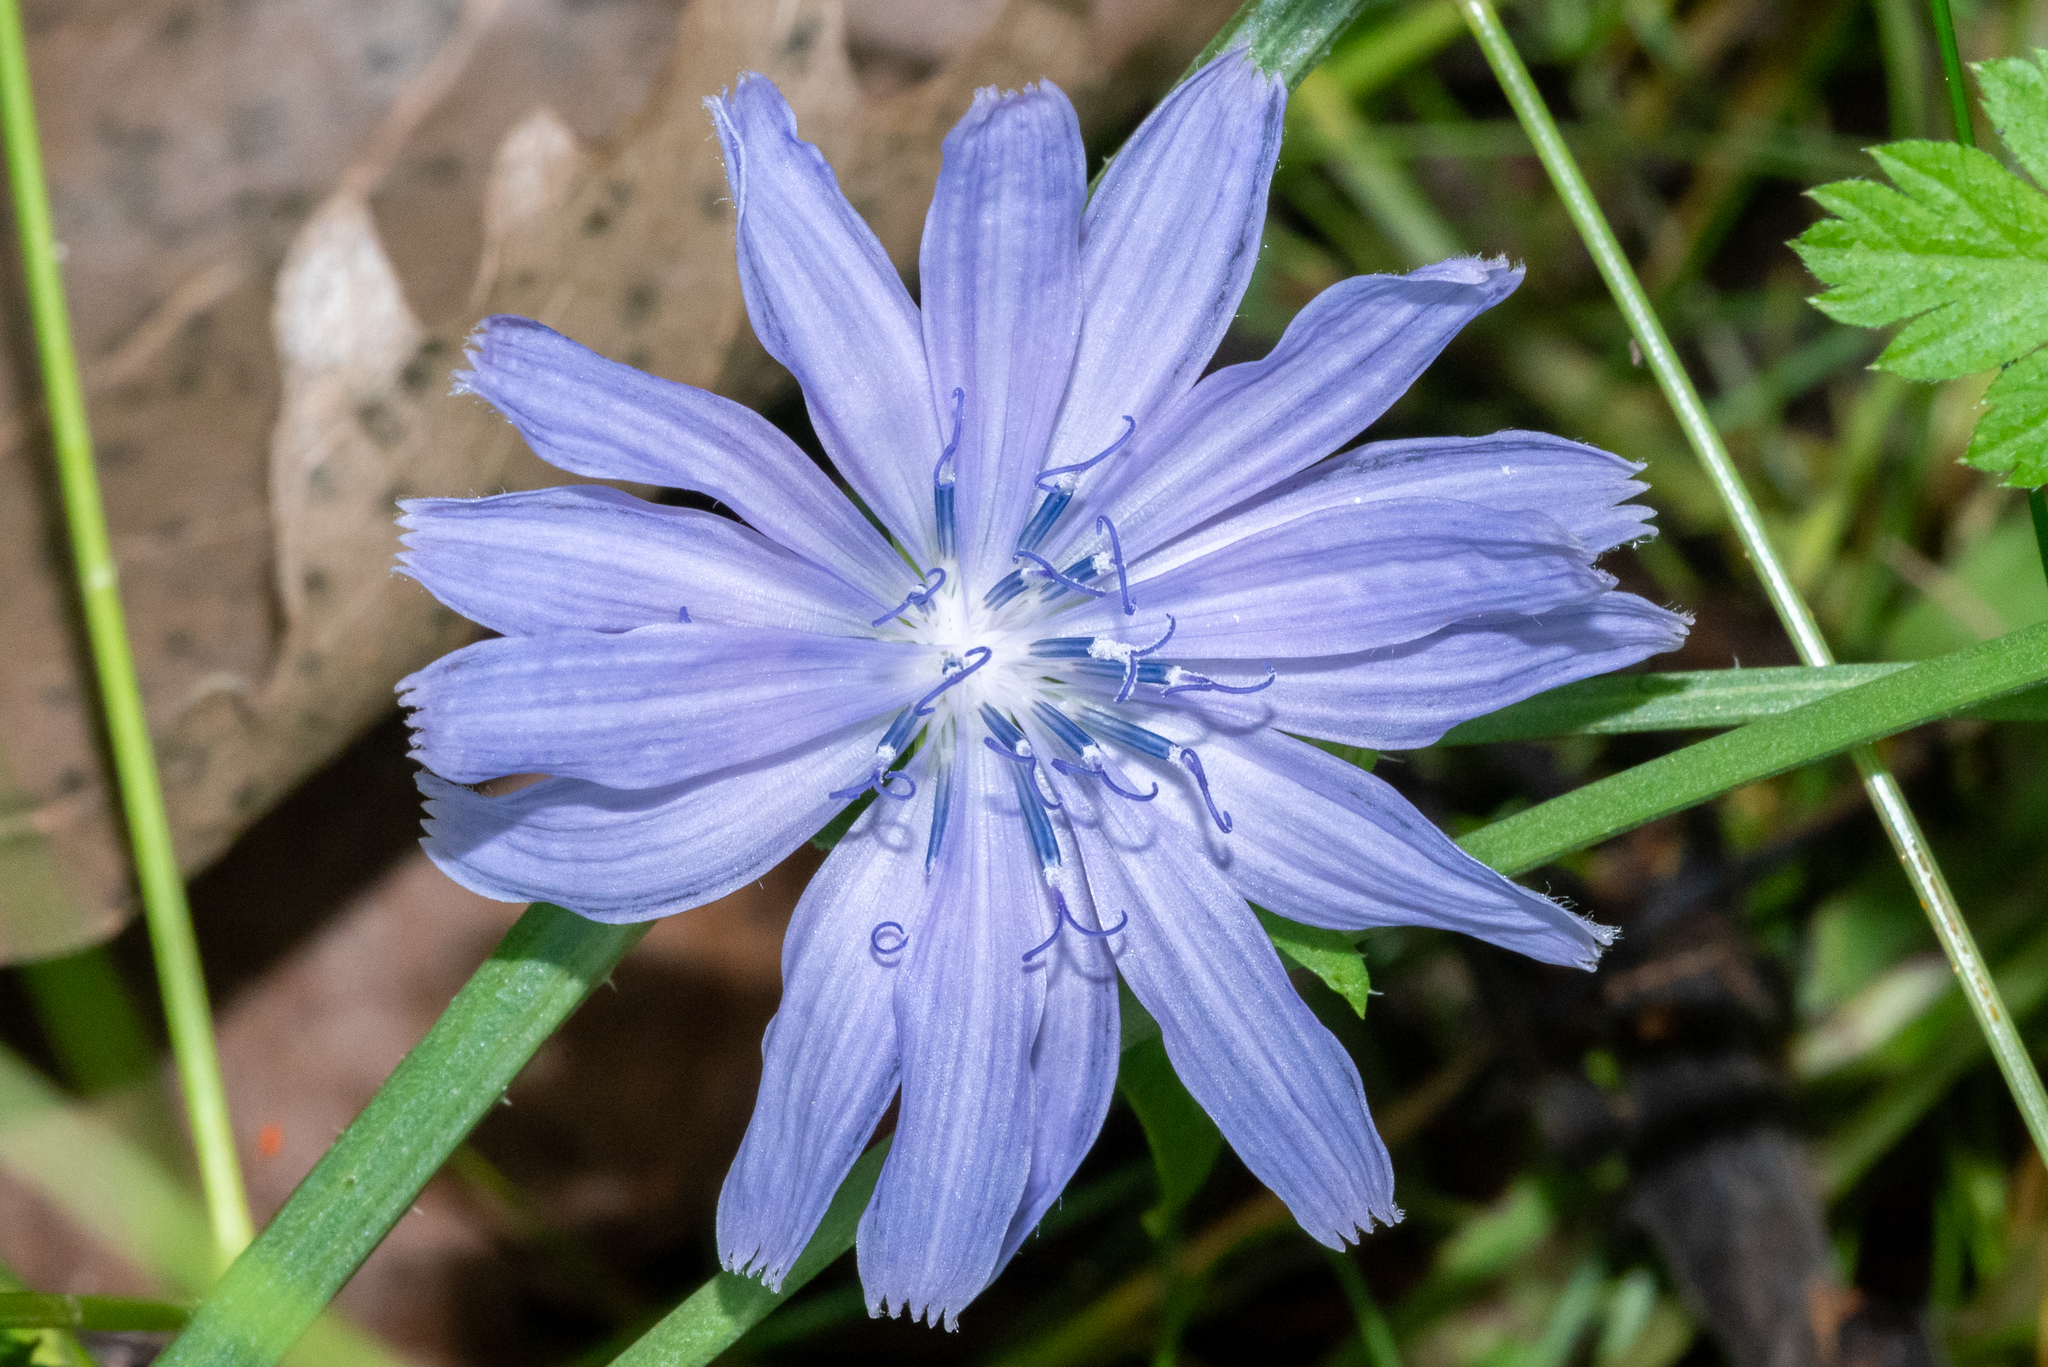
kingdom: Plantae
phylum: Tracheophyta
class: Magnoliopsida
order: Asterales
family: Asteraceae
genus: Cichorium
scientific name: Cichorium intybus
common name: Chicory
